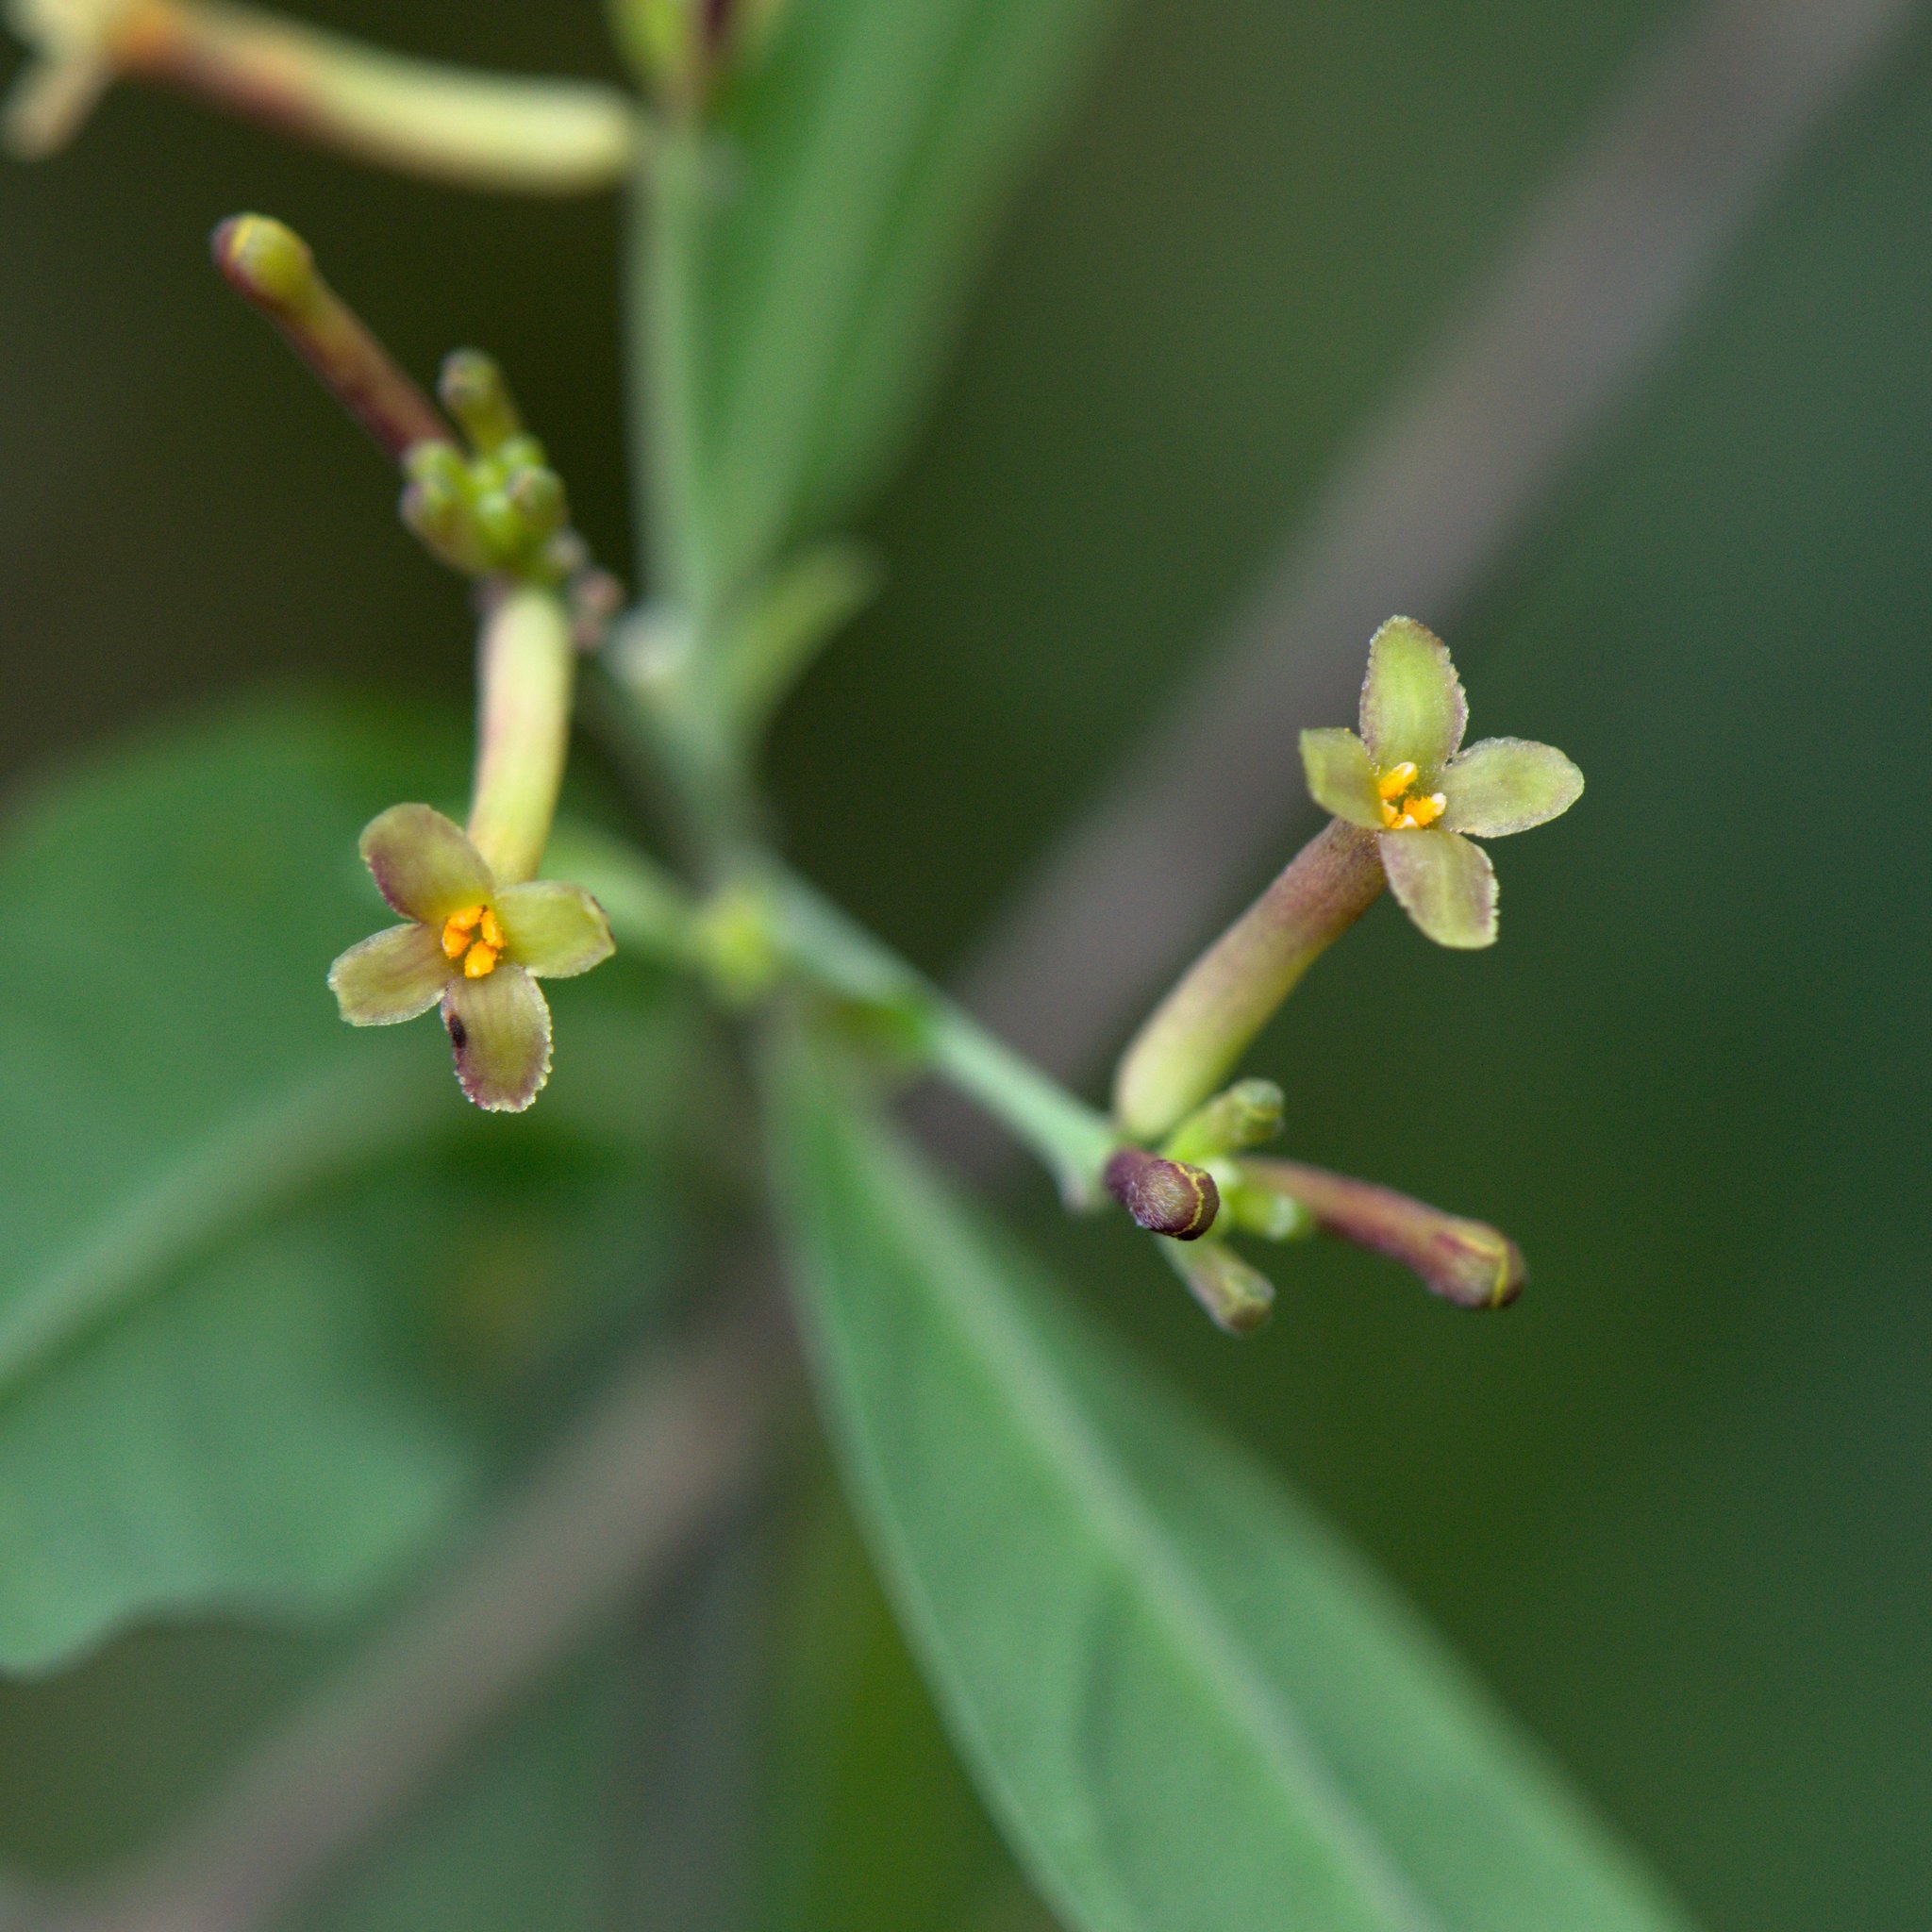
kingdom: Plantae
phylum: Tracheophyta
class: Magnoliopsida
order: Malvales
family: Thymelaeaceae
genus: Wikstroemia
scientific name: Wikstroemia indica
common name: Tiebush
